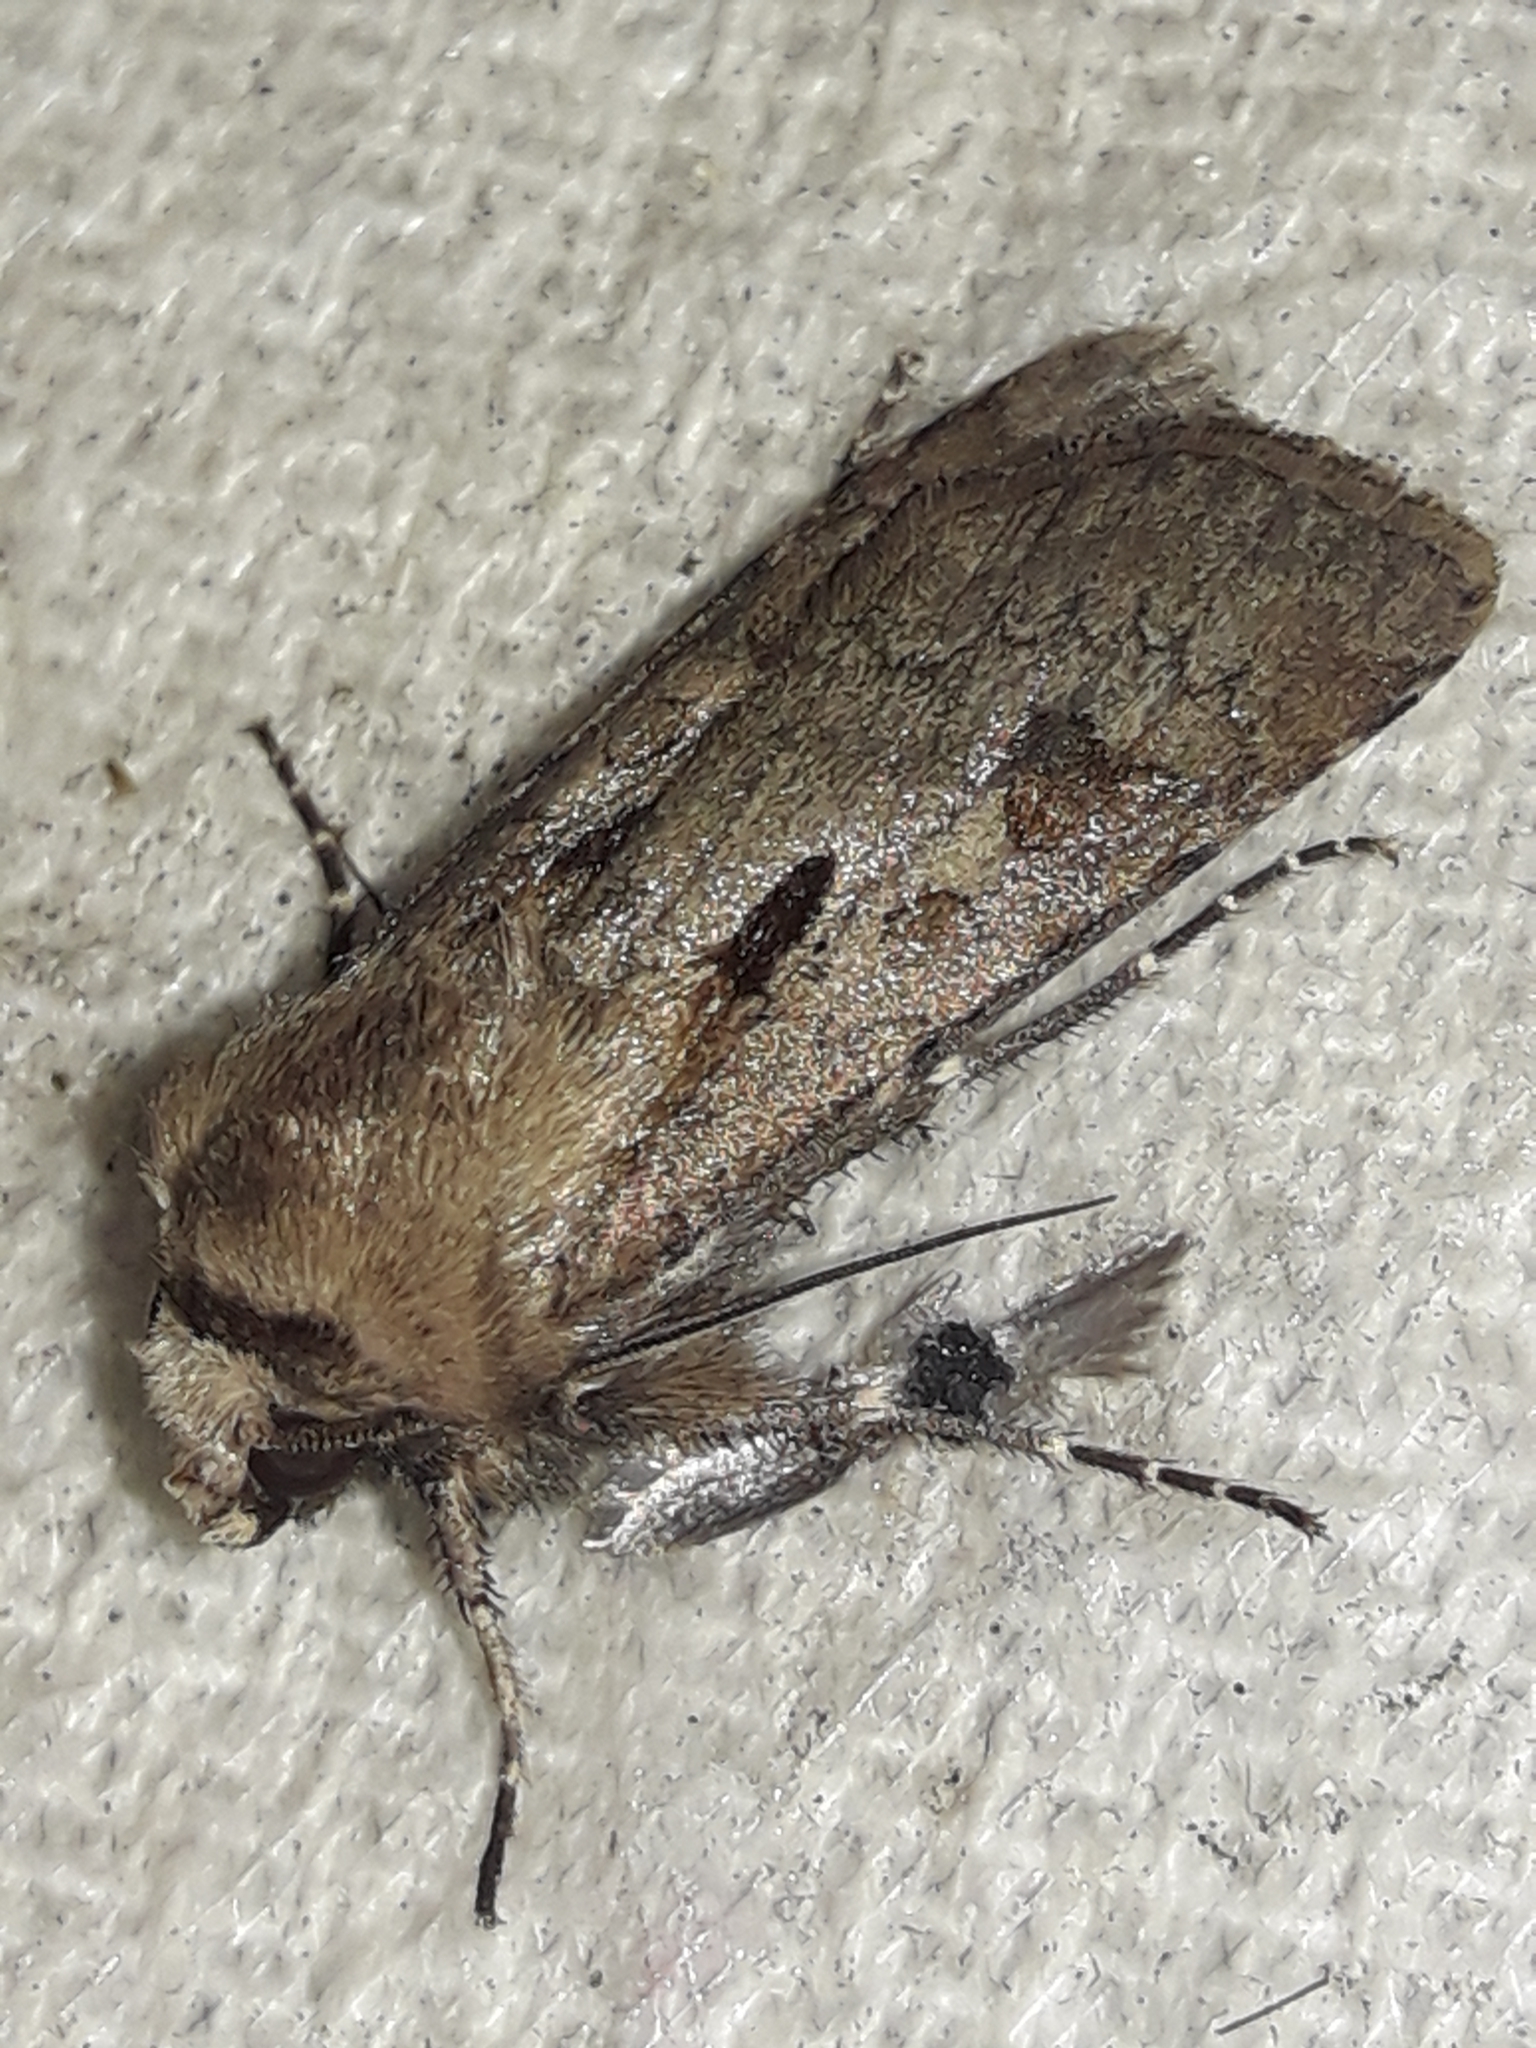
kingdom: Animalia
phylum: Arthropoda
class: Insecta
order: Lepidoptera
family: Noctuidae
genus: Agrotis
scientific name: Agrotis exclamationis
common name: Heart and dart
